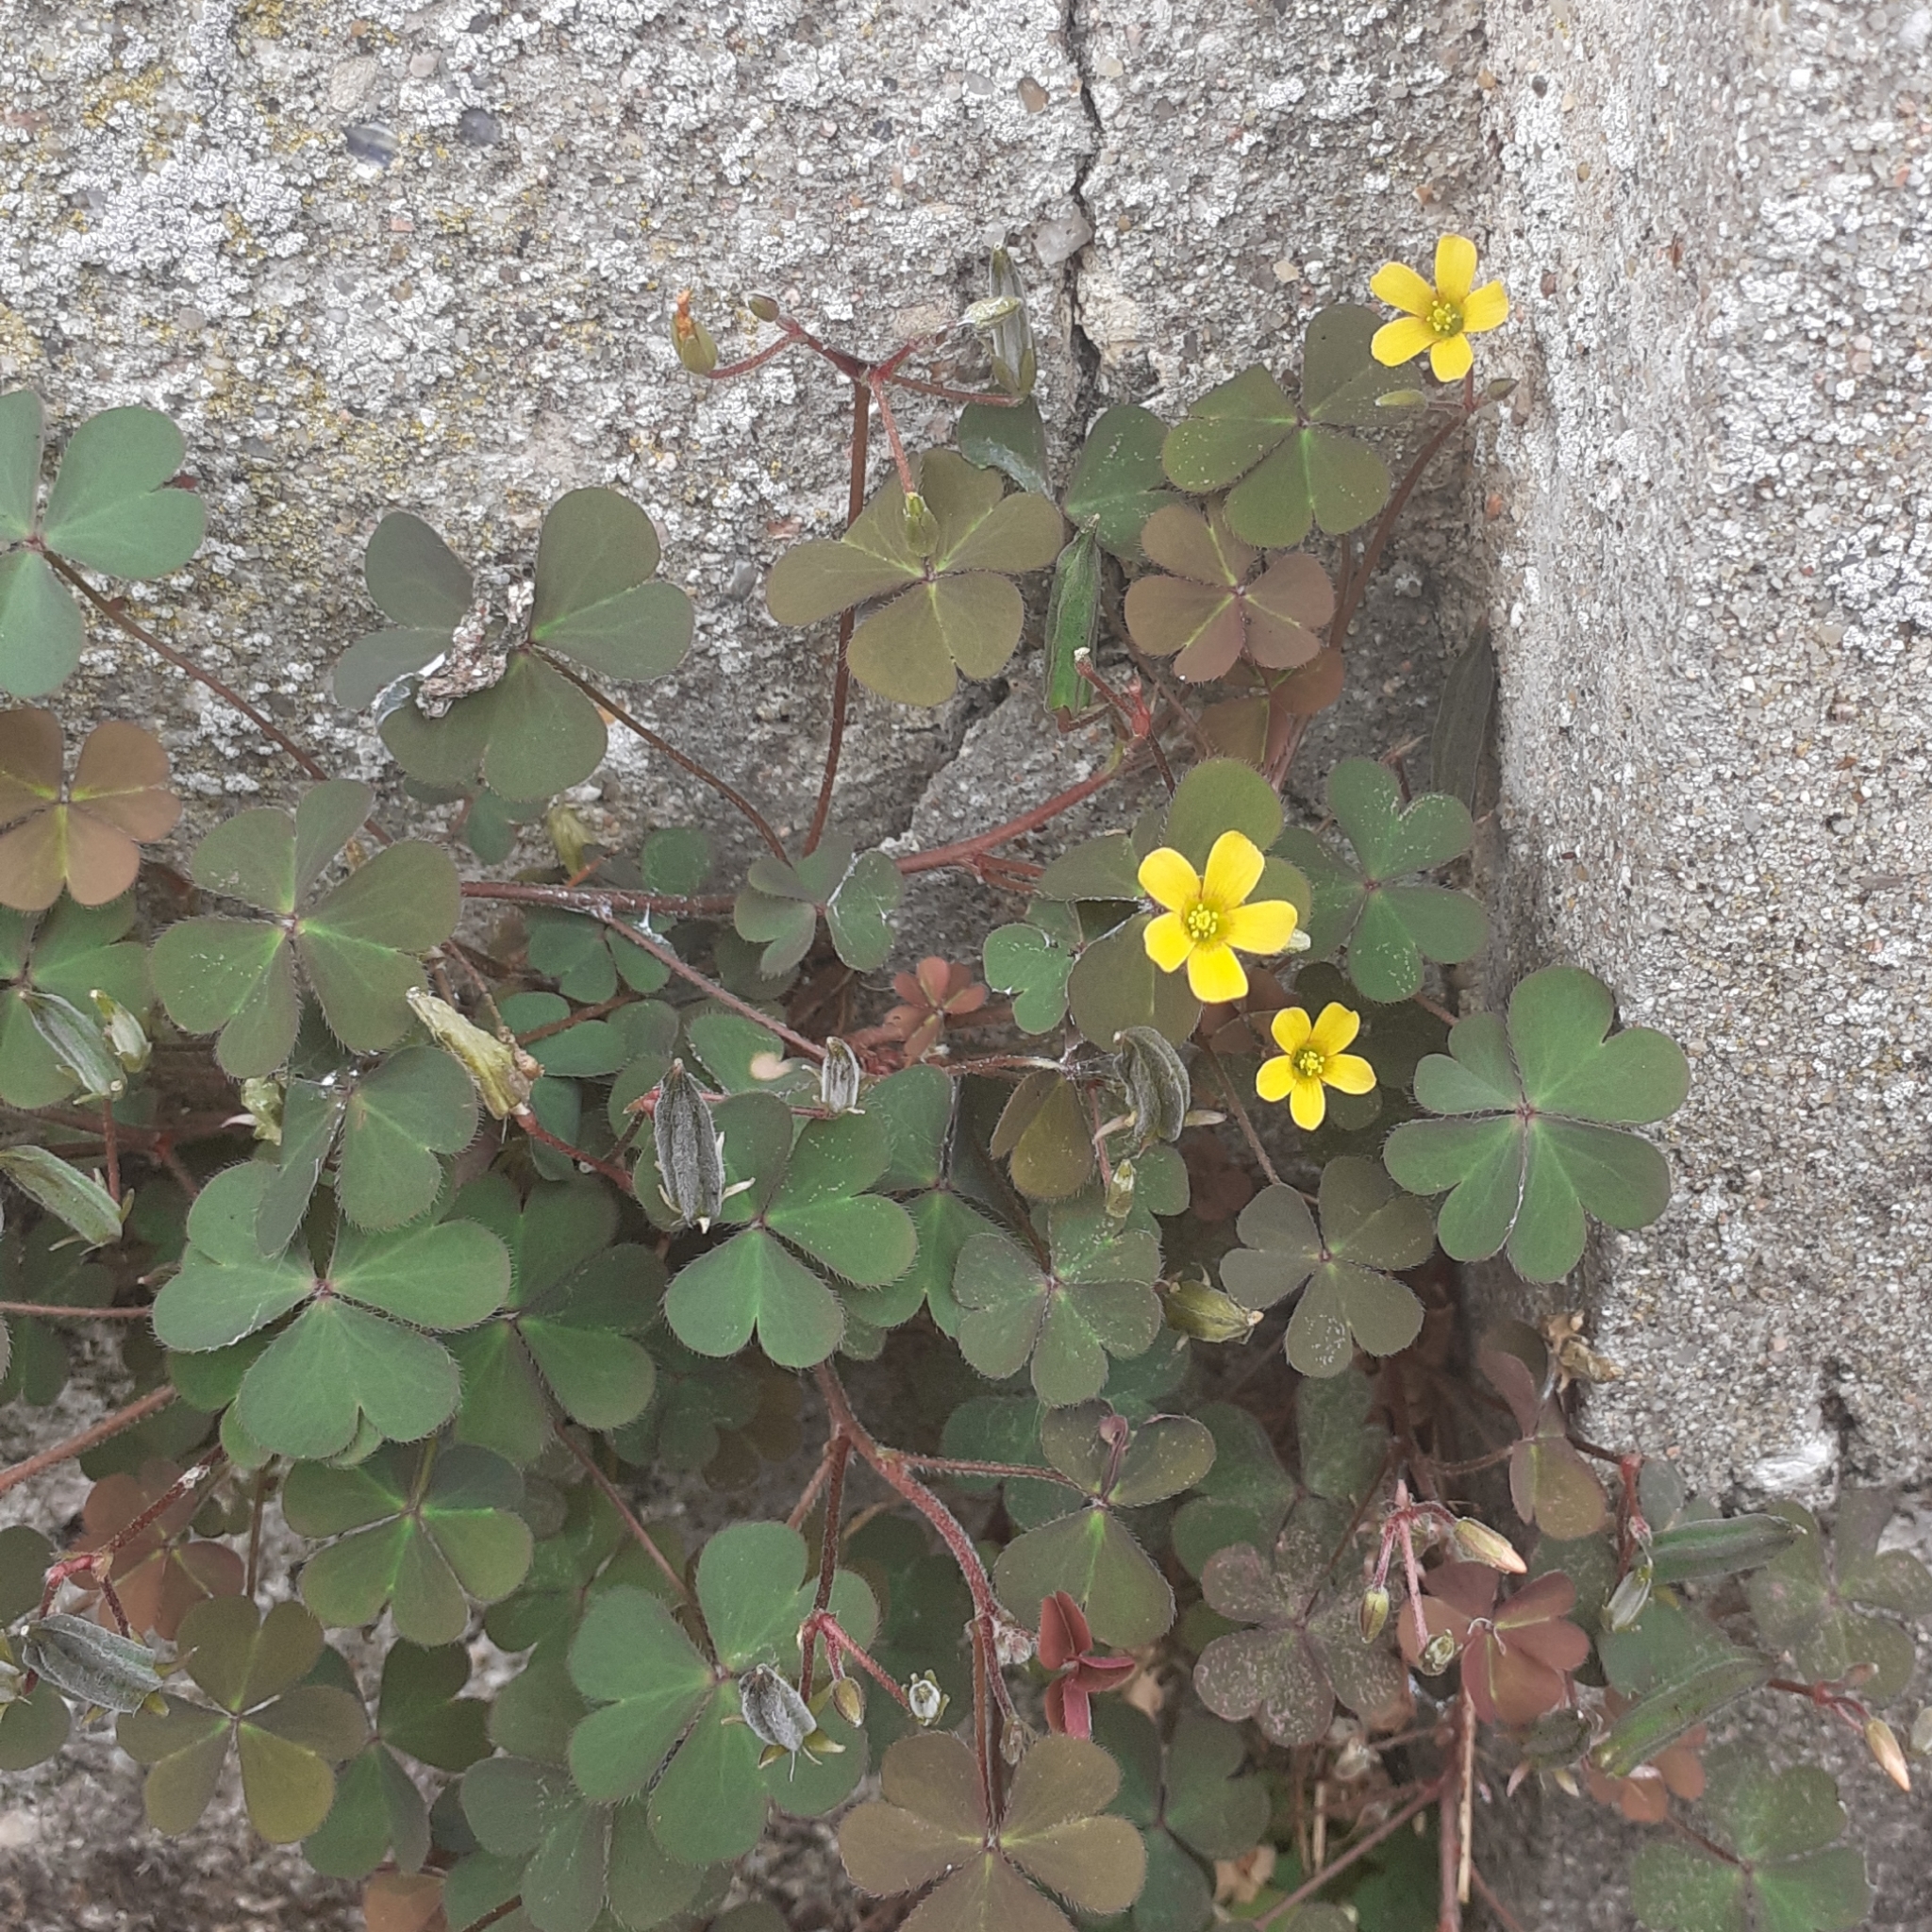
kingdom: Plantae
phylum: Tracheophyta
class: Magnoliopsida
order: Oxalidales
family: Oxalidaceae
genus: Oxalis
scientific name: Oxalis corniculata
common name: Procumbent yellow-sorrel
